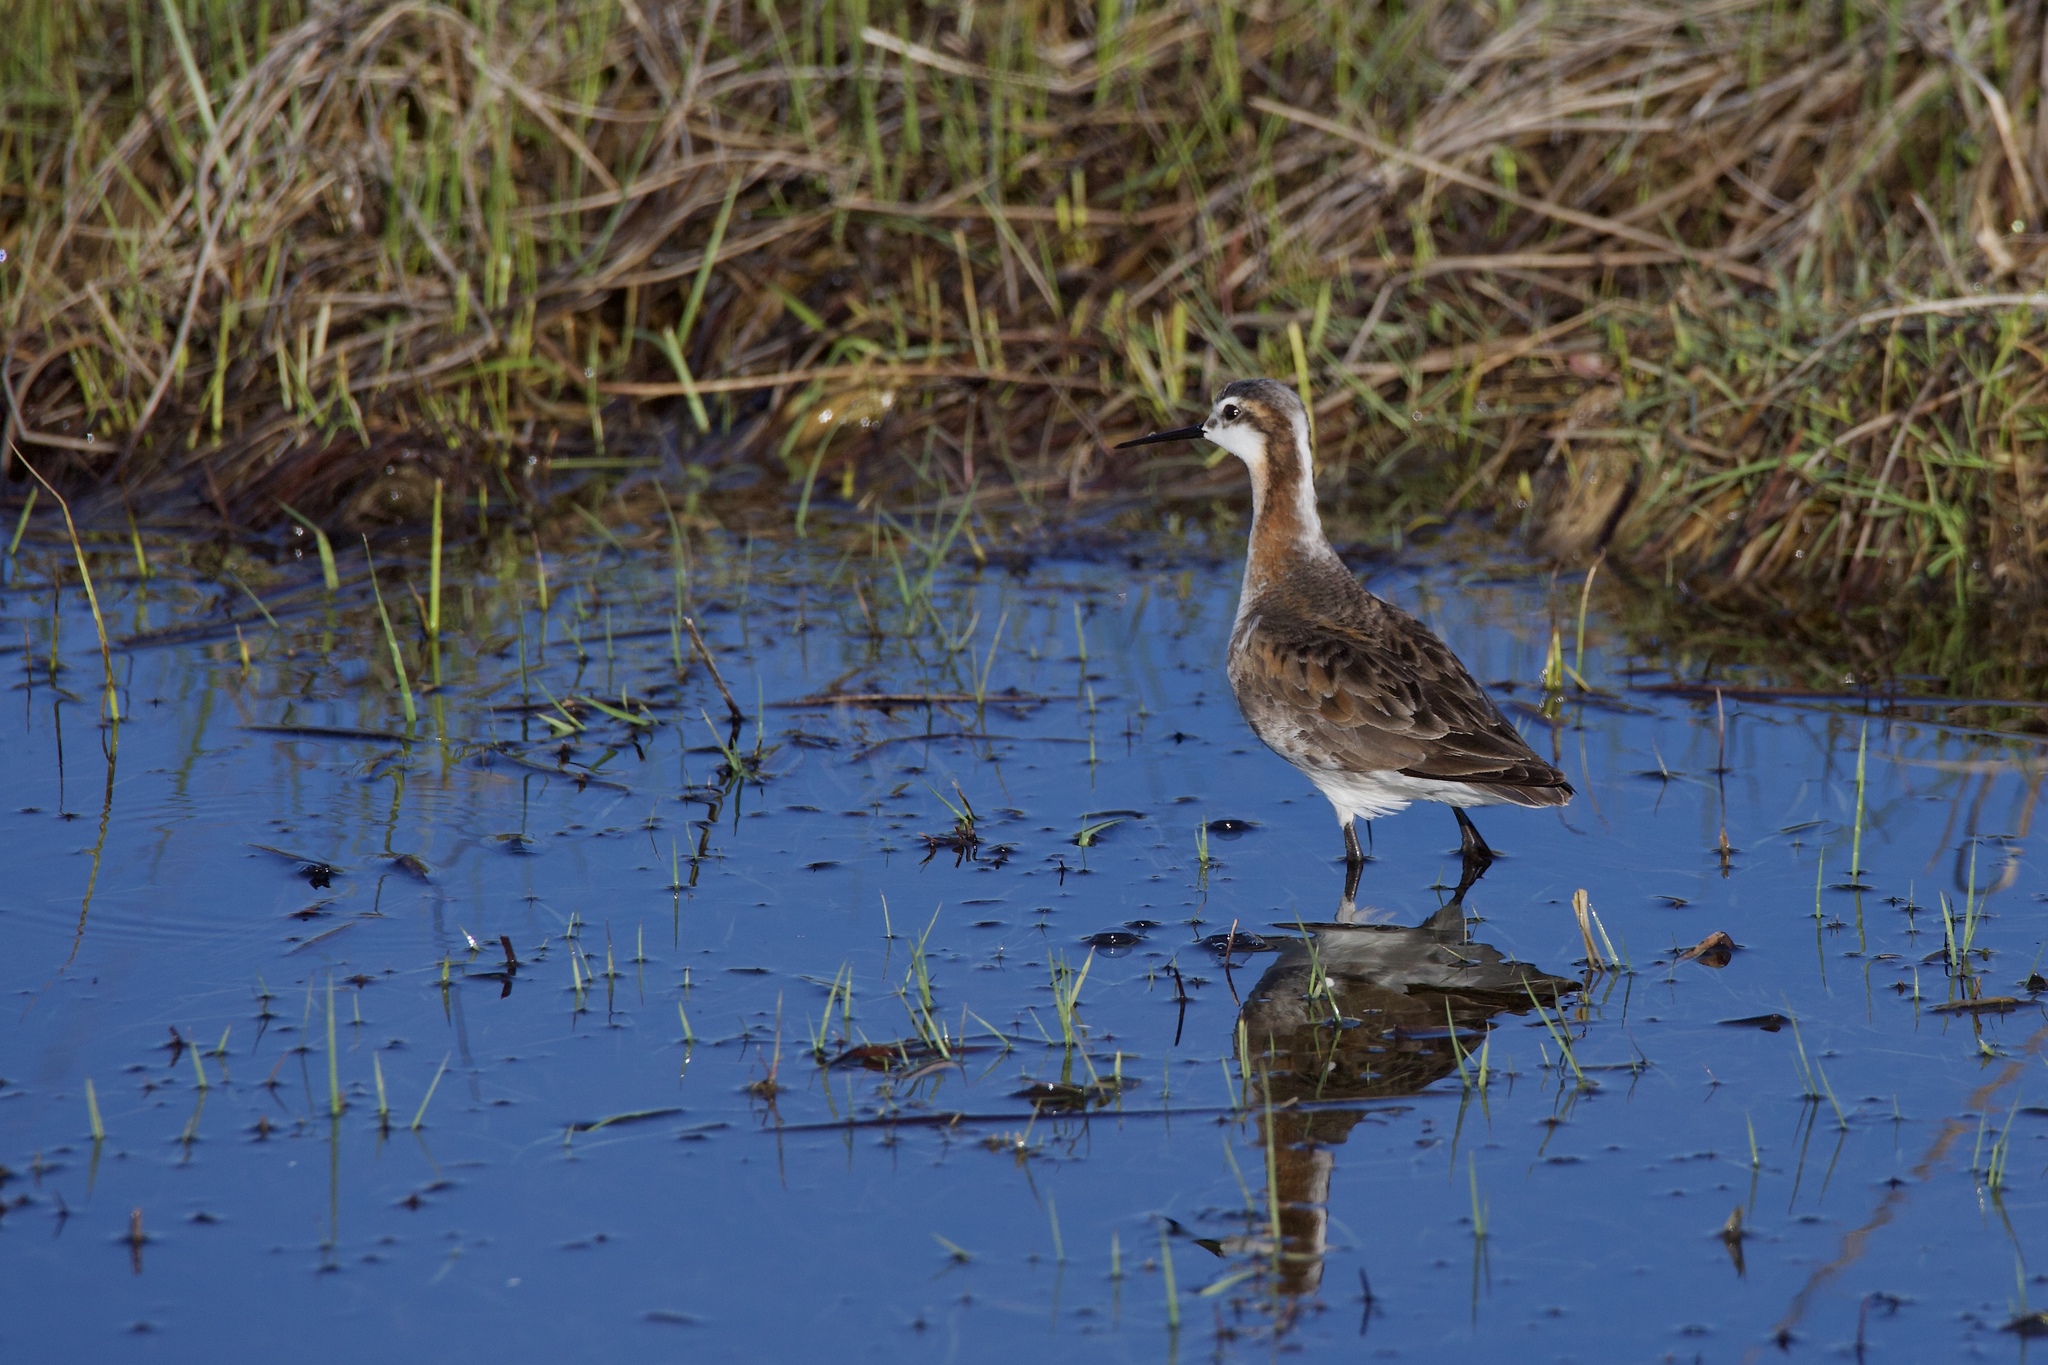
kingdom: Animalia
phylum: Chordata
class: Aves
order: Charadriiformes
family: Scolopacidae
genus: Phalaropus
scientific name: Phalaropus tricolor
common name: Wilson's phalarope
